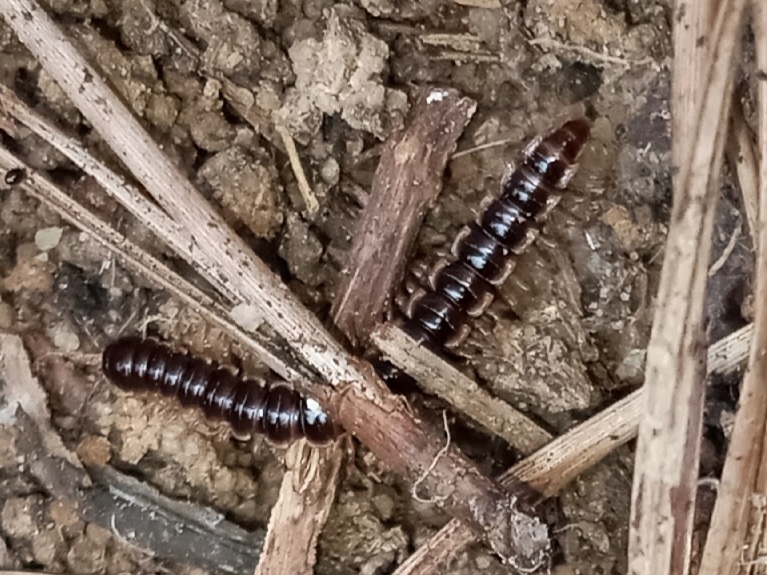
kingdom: Animalia
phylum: Arthropoda
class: Diplopoda
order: Polydesmida
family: Paradoxosomatidae
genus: Oxidus
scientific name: Oxidus gracilis
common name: Greenhouse millipede
